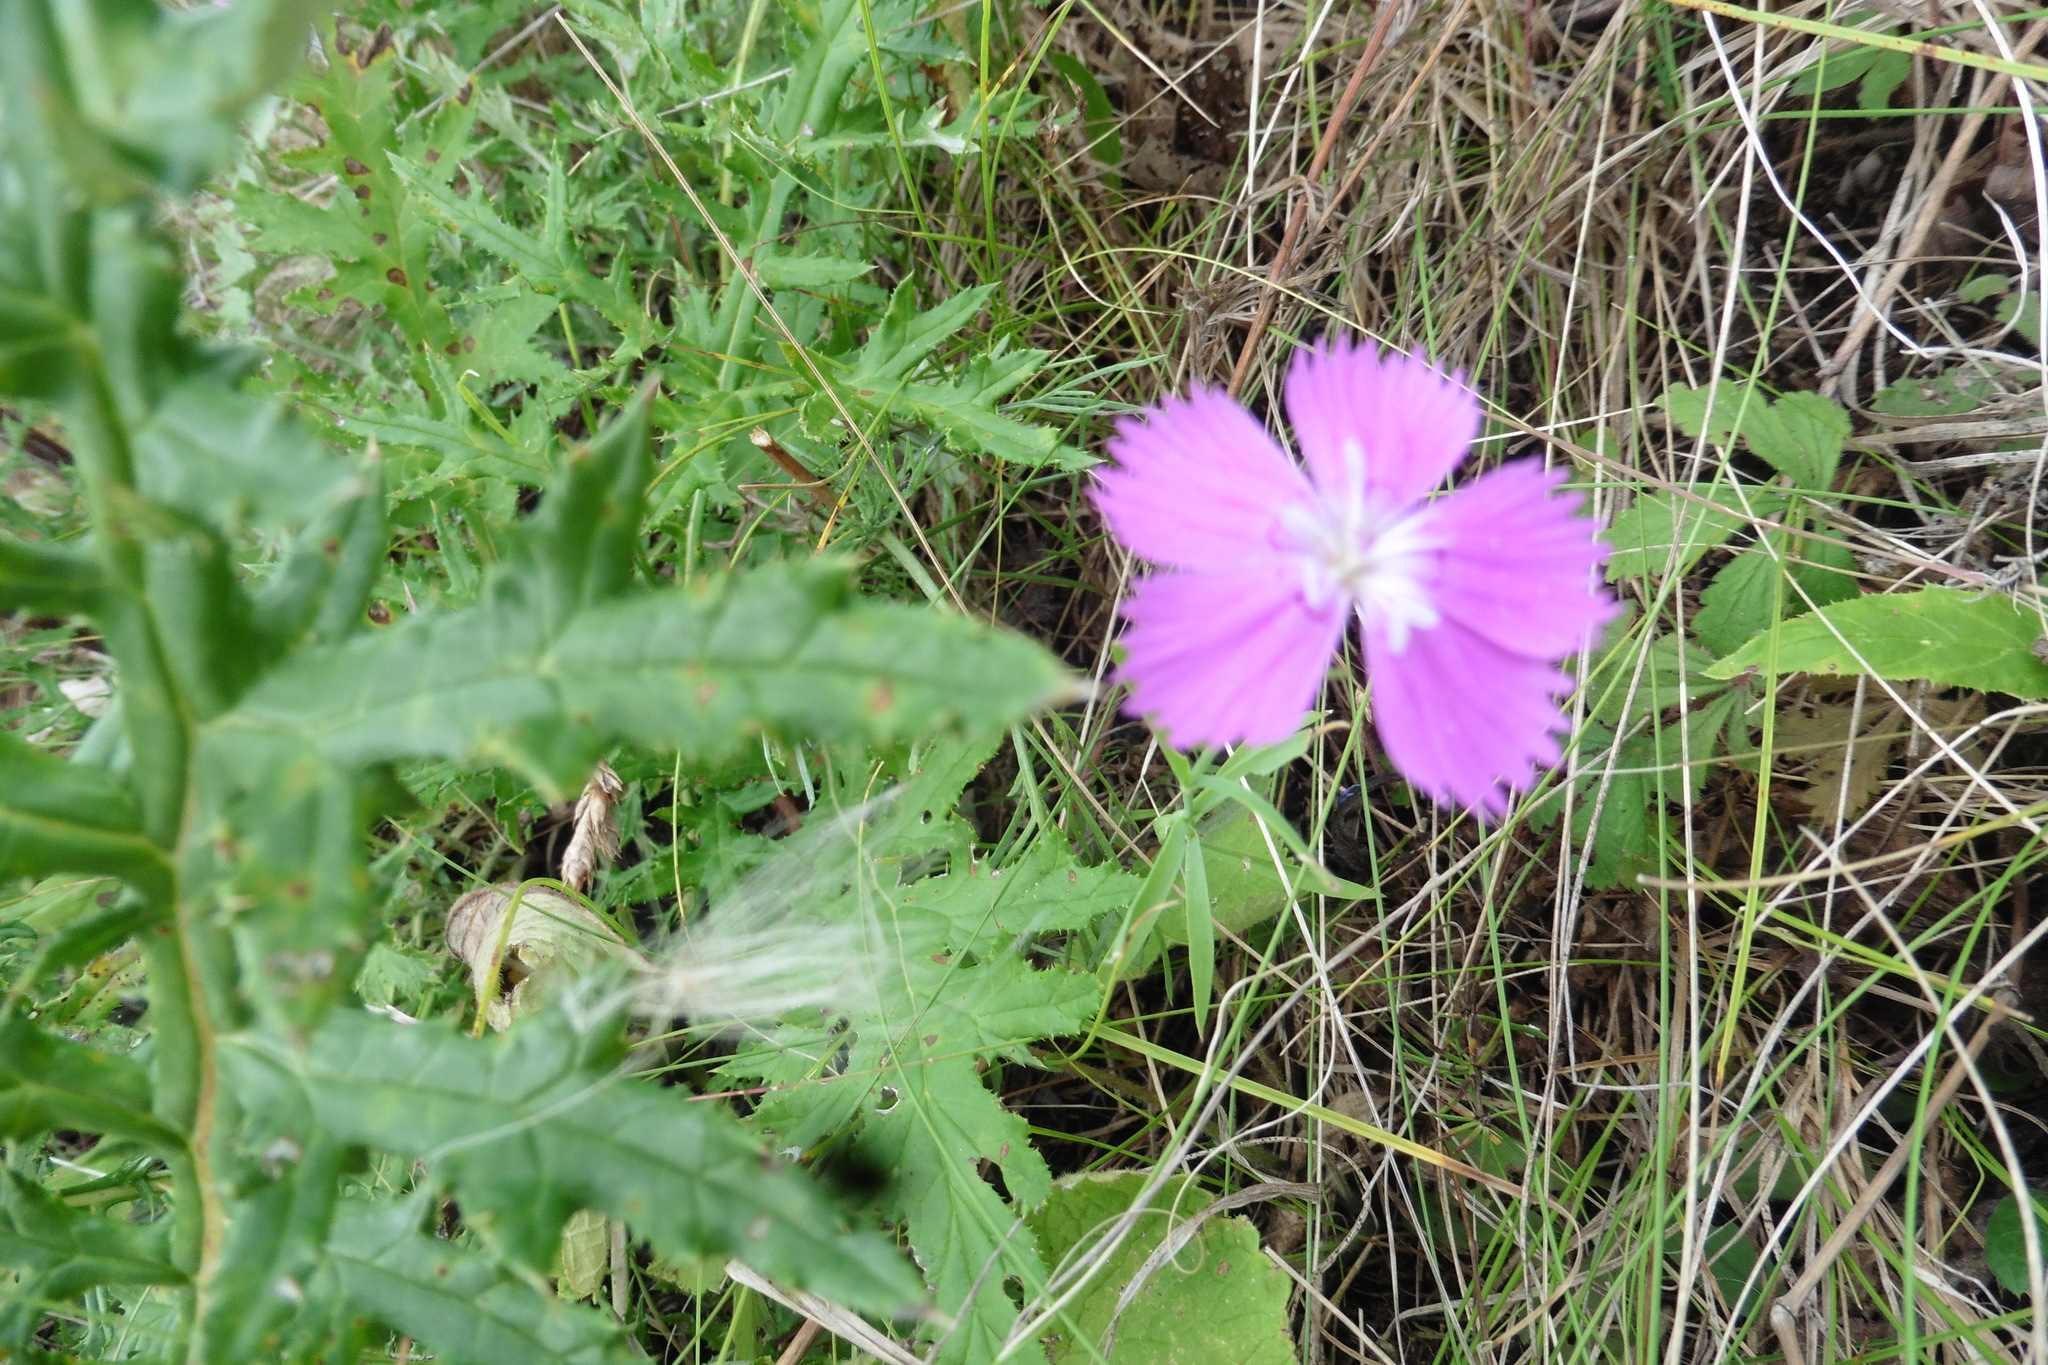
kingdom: Plantae
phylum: Tracheophyta
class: Magnoliopsida
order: Caryophyllales
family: Caryophyllaceae
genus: Dianthus
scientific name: Dianthus chinensis
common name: Rainbow pink
